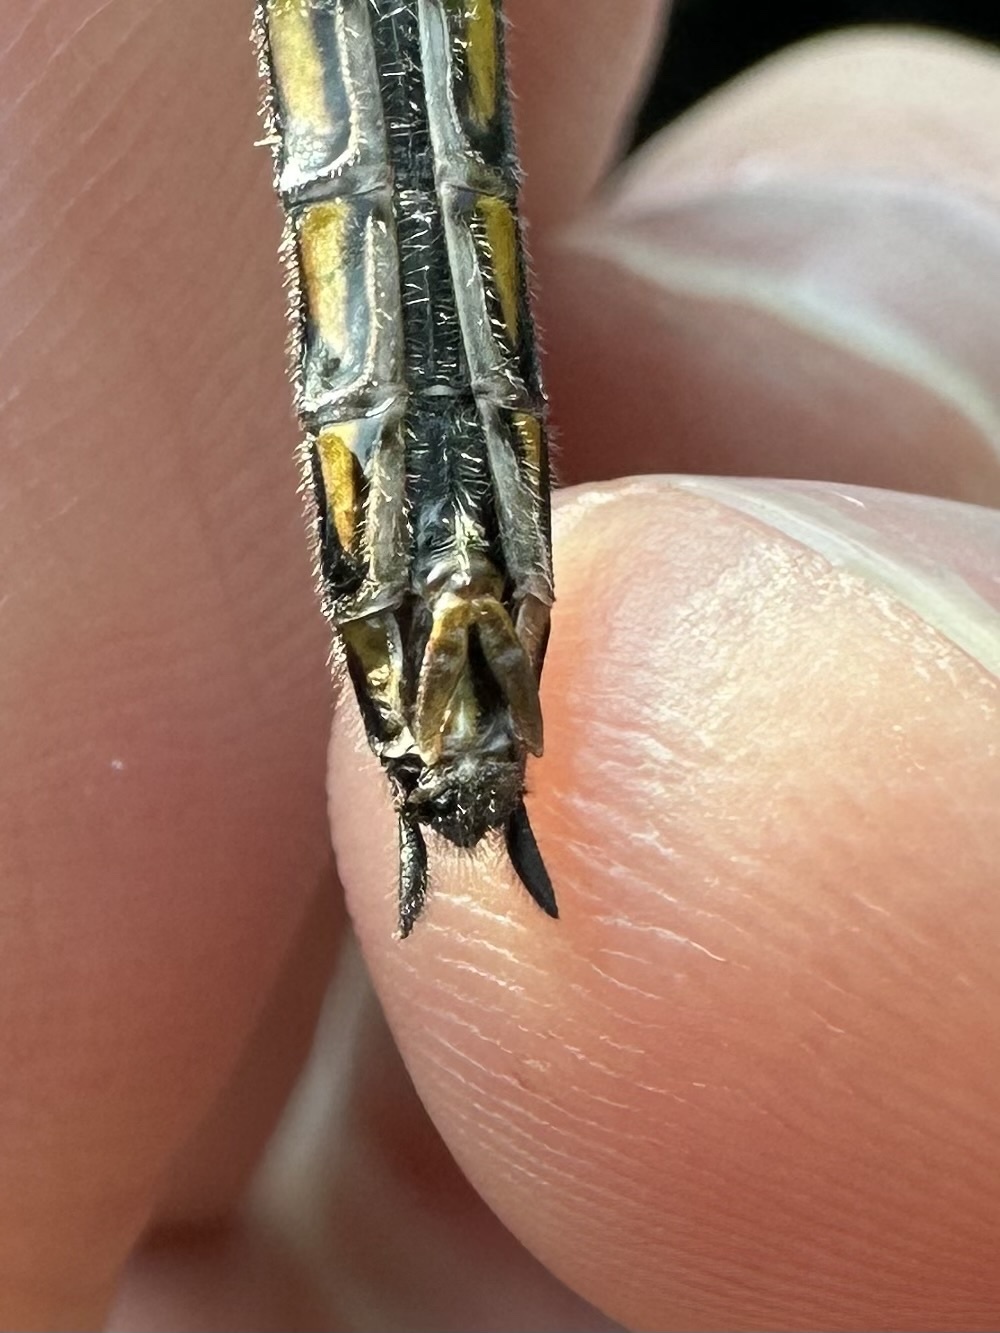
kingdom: Animalia
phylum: Arthropoda
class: Insecta
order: Odonata
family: Corduliidae
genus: Epitheca
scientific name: Epitheca cynosura
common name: Common baskettail
